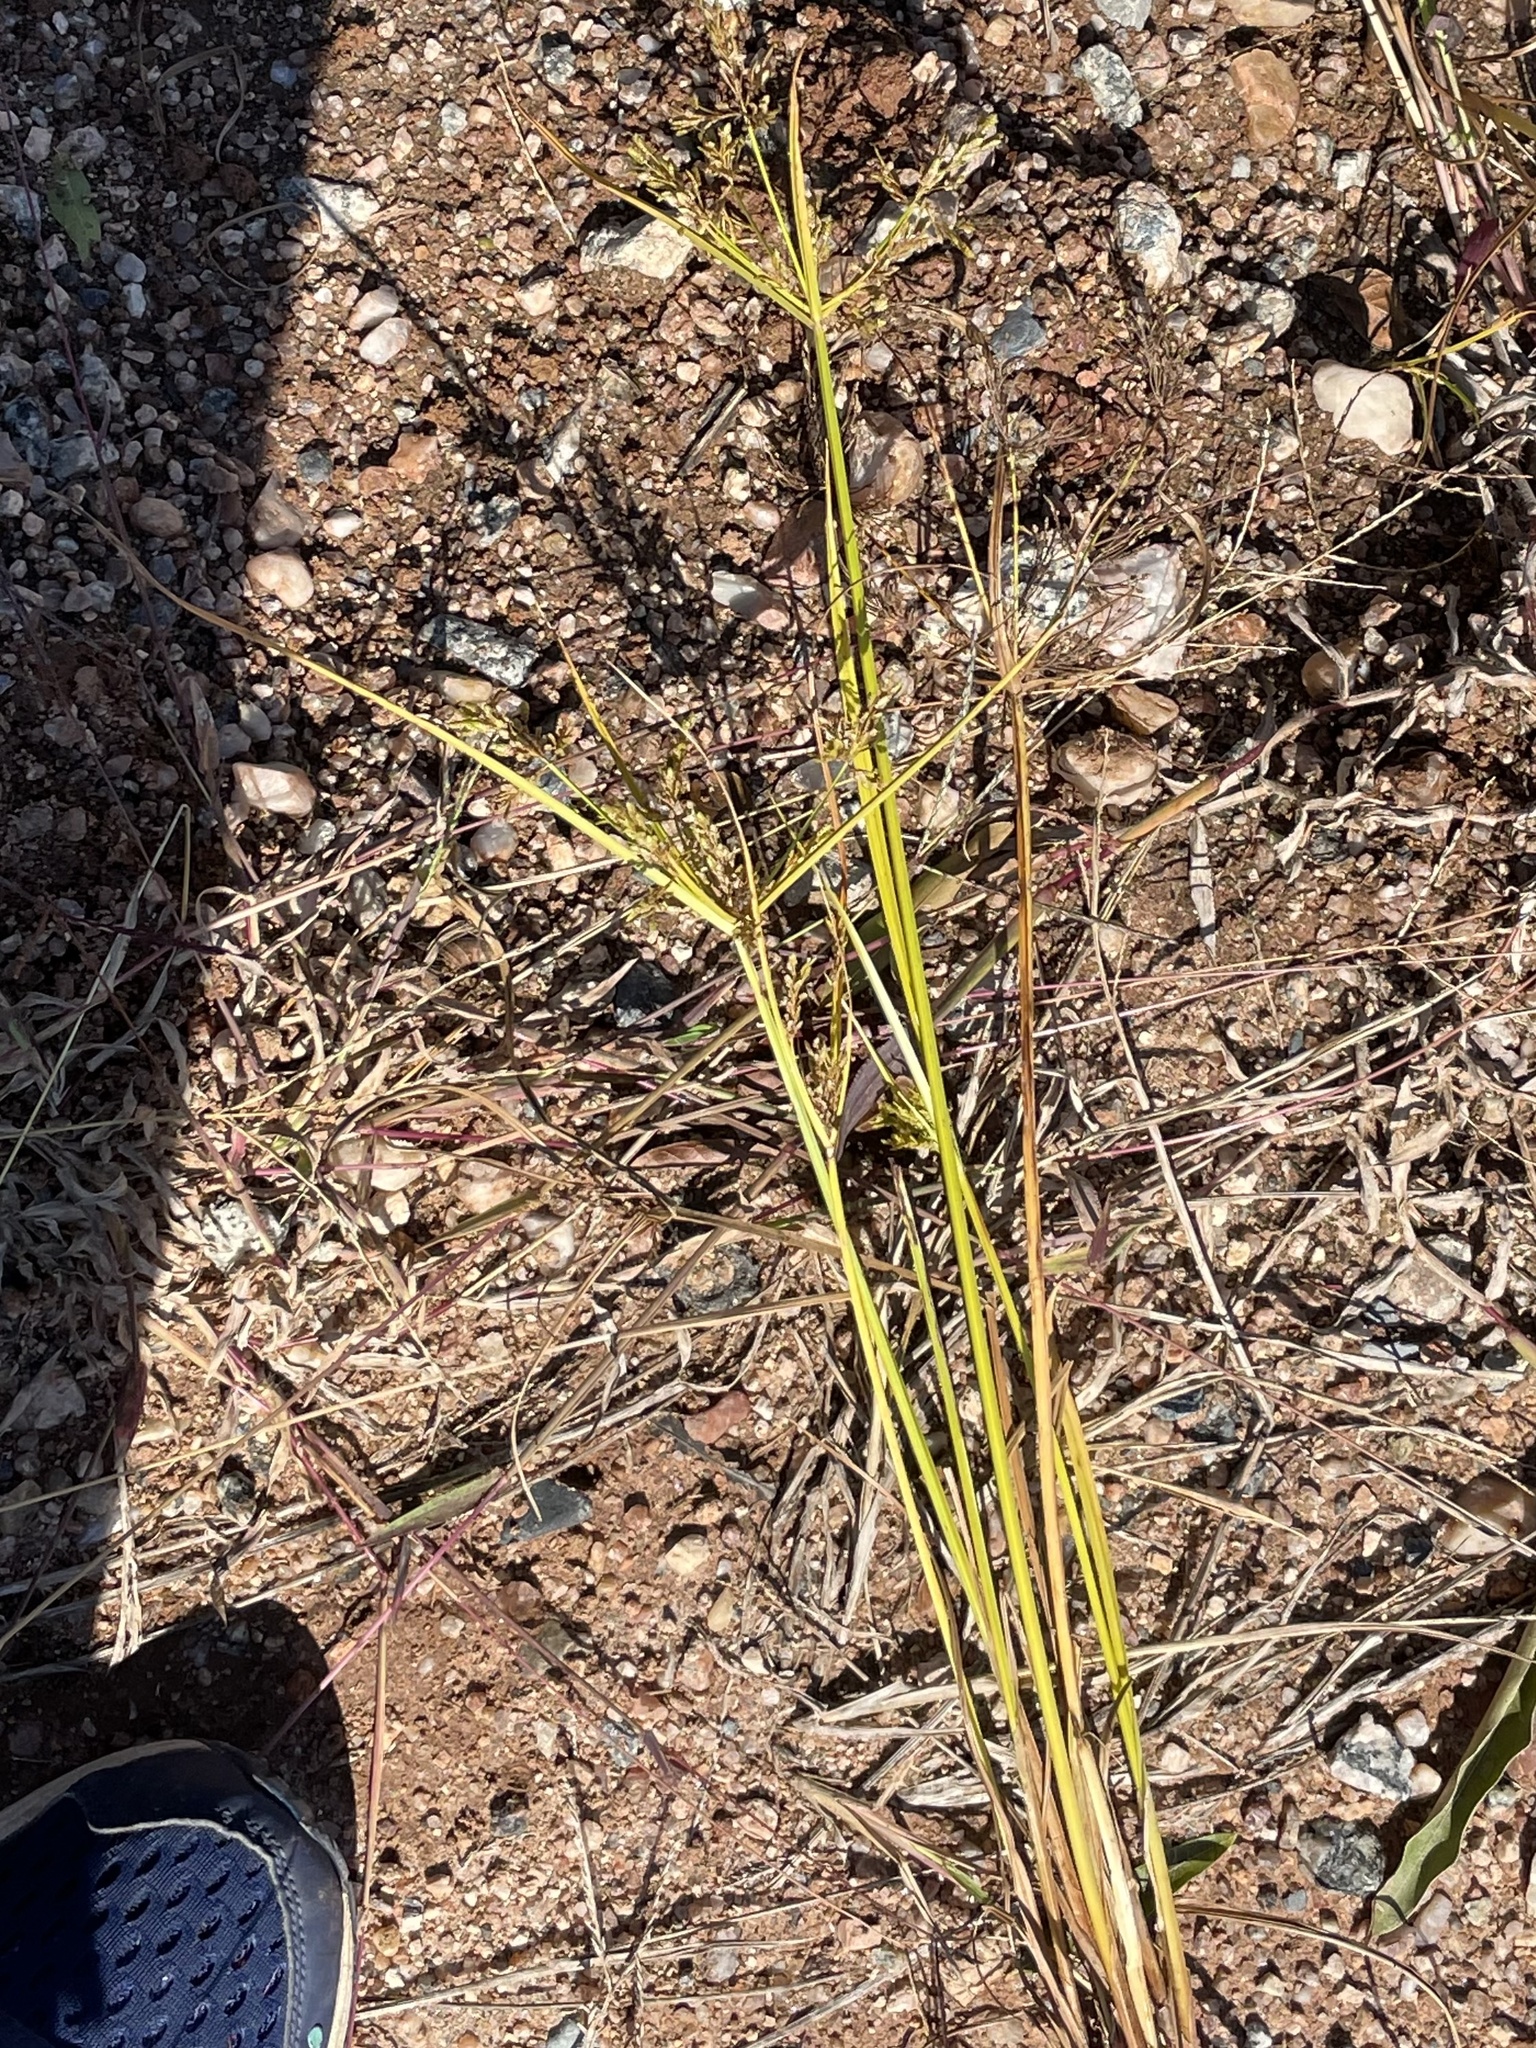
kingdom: Plantae
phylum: Tracheophyta
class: Liliopsida
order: Poales
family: Cyperaceae
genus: Cyperus
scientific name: Cyperus iria
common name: Ricefield flatsedge
